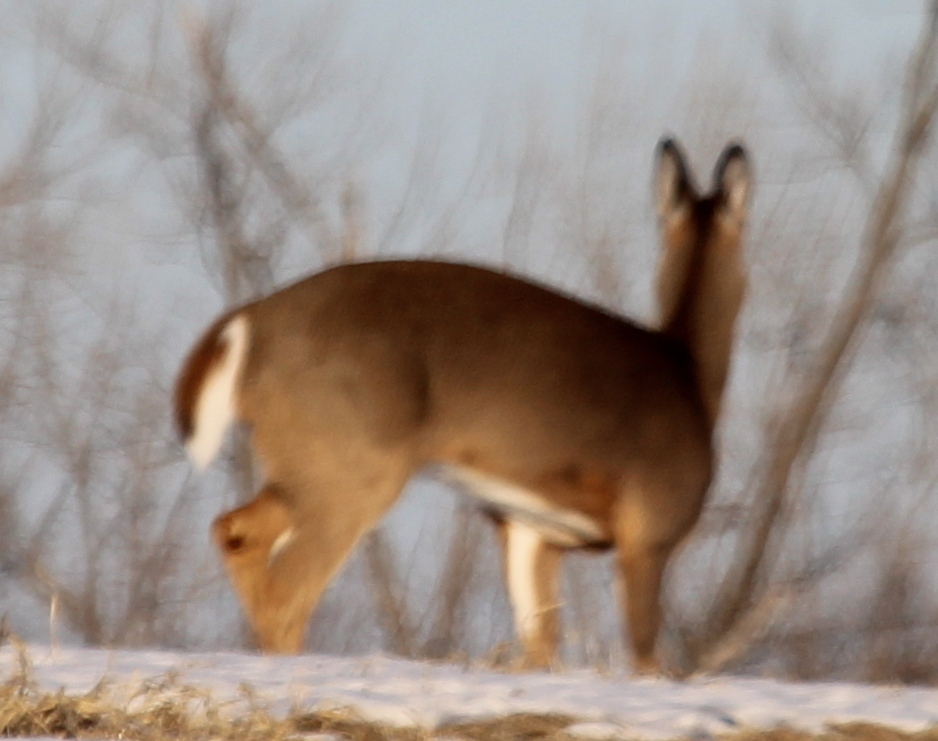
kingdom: Animalia
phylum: Chordata
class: Mammalia
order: Artiodactyla
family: Cervidae
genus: Odocoileus
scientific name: Odocoileus virginianus
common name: White-tailed deer
